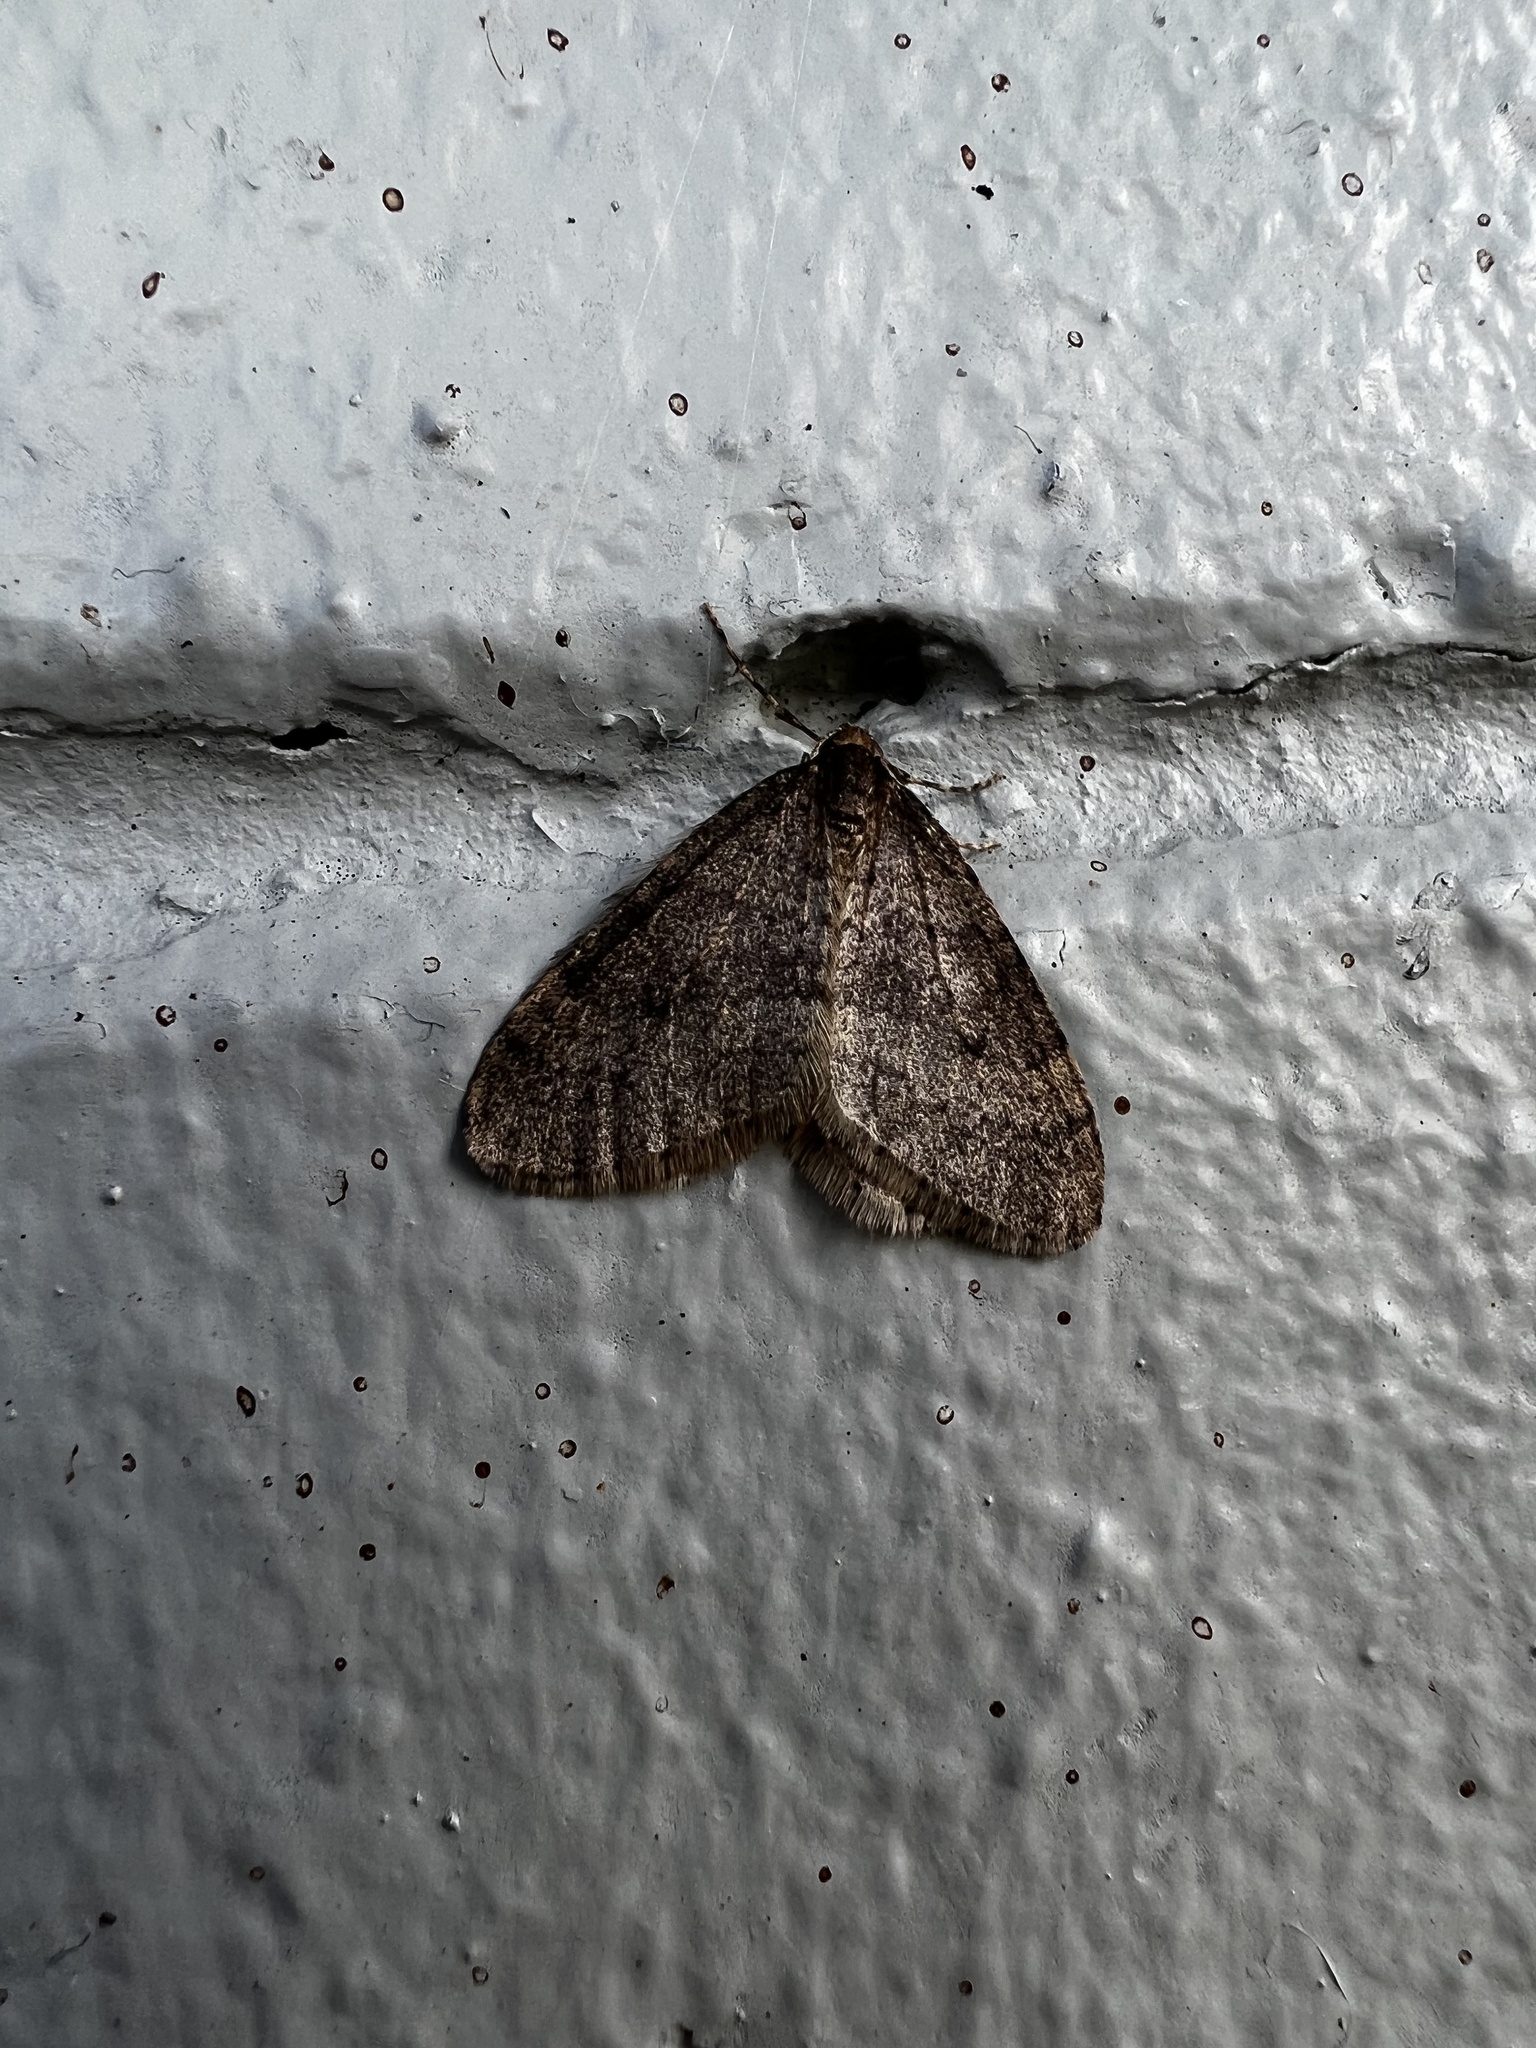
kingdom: Animalia
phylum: Arthropoda
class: Insecta
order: Lepidoptera
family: Geometridae
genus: Operophtera
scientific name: Operophtera
